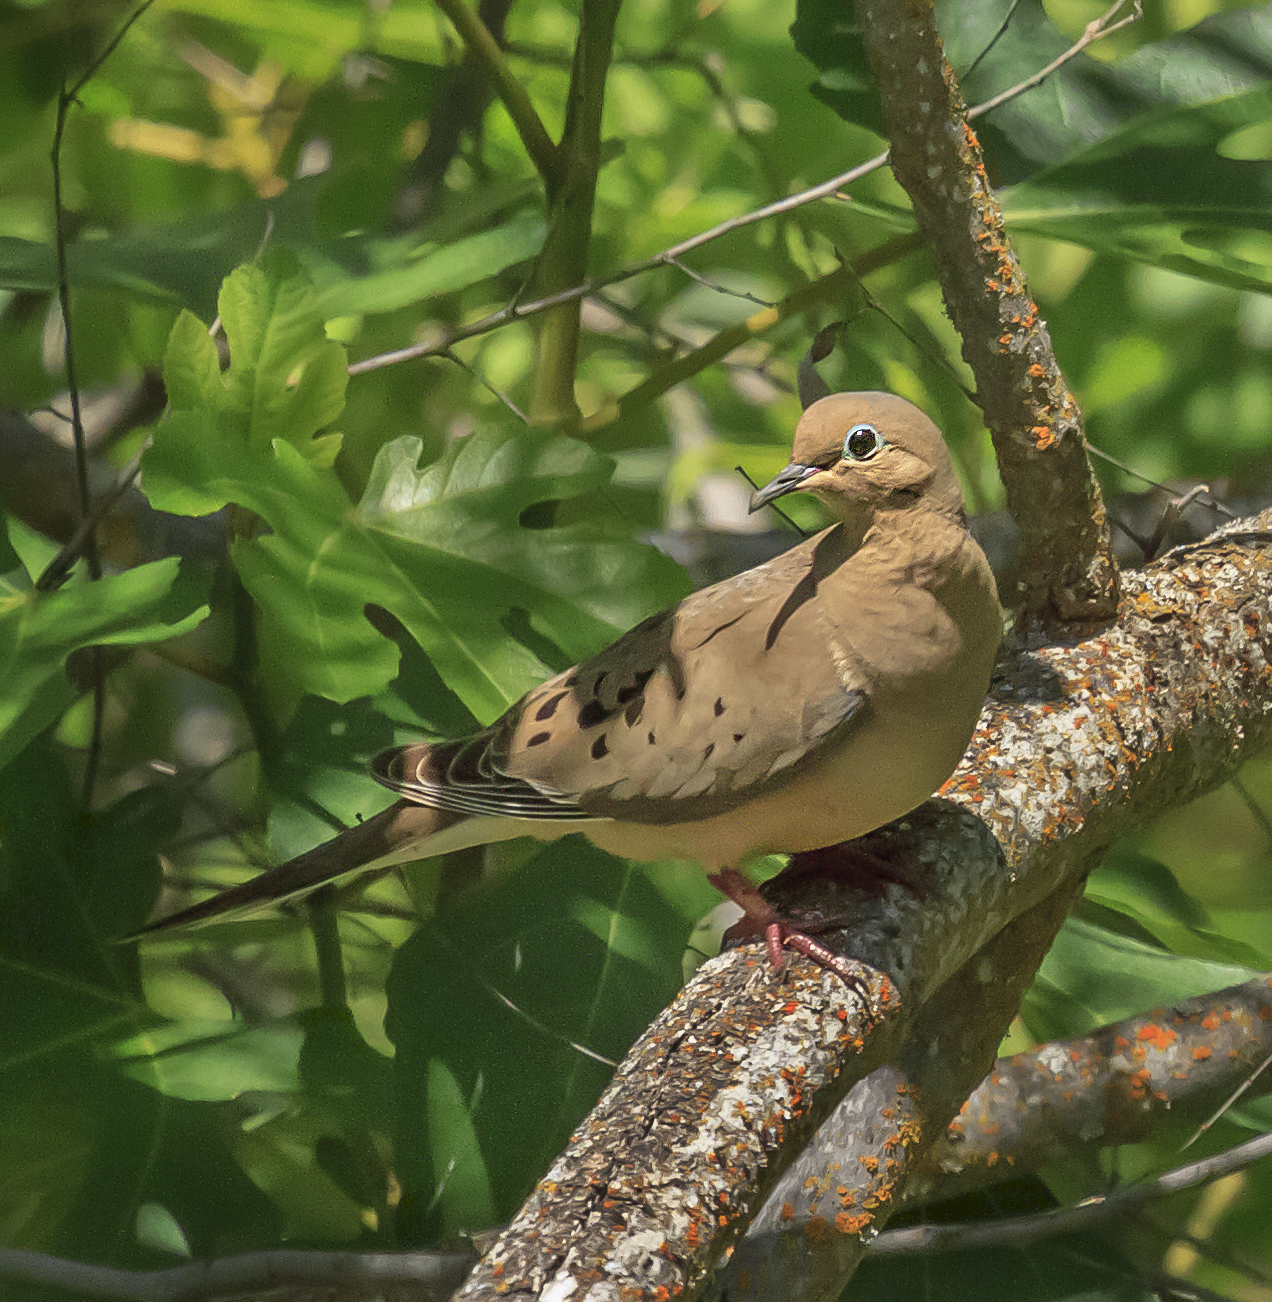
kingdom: Animalia
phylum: Chordata
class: Aves
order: Columbiformes
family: Columbidae
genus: Zenaida
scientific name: Zenaida macroura
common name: Mourning dove
